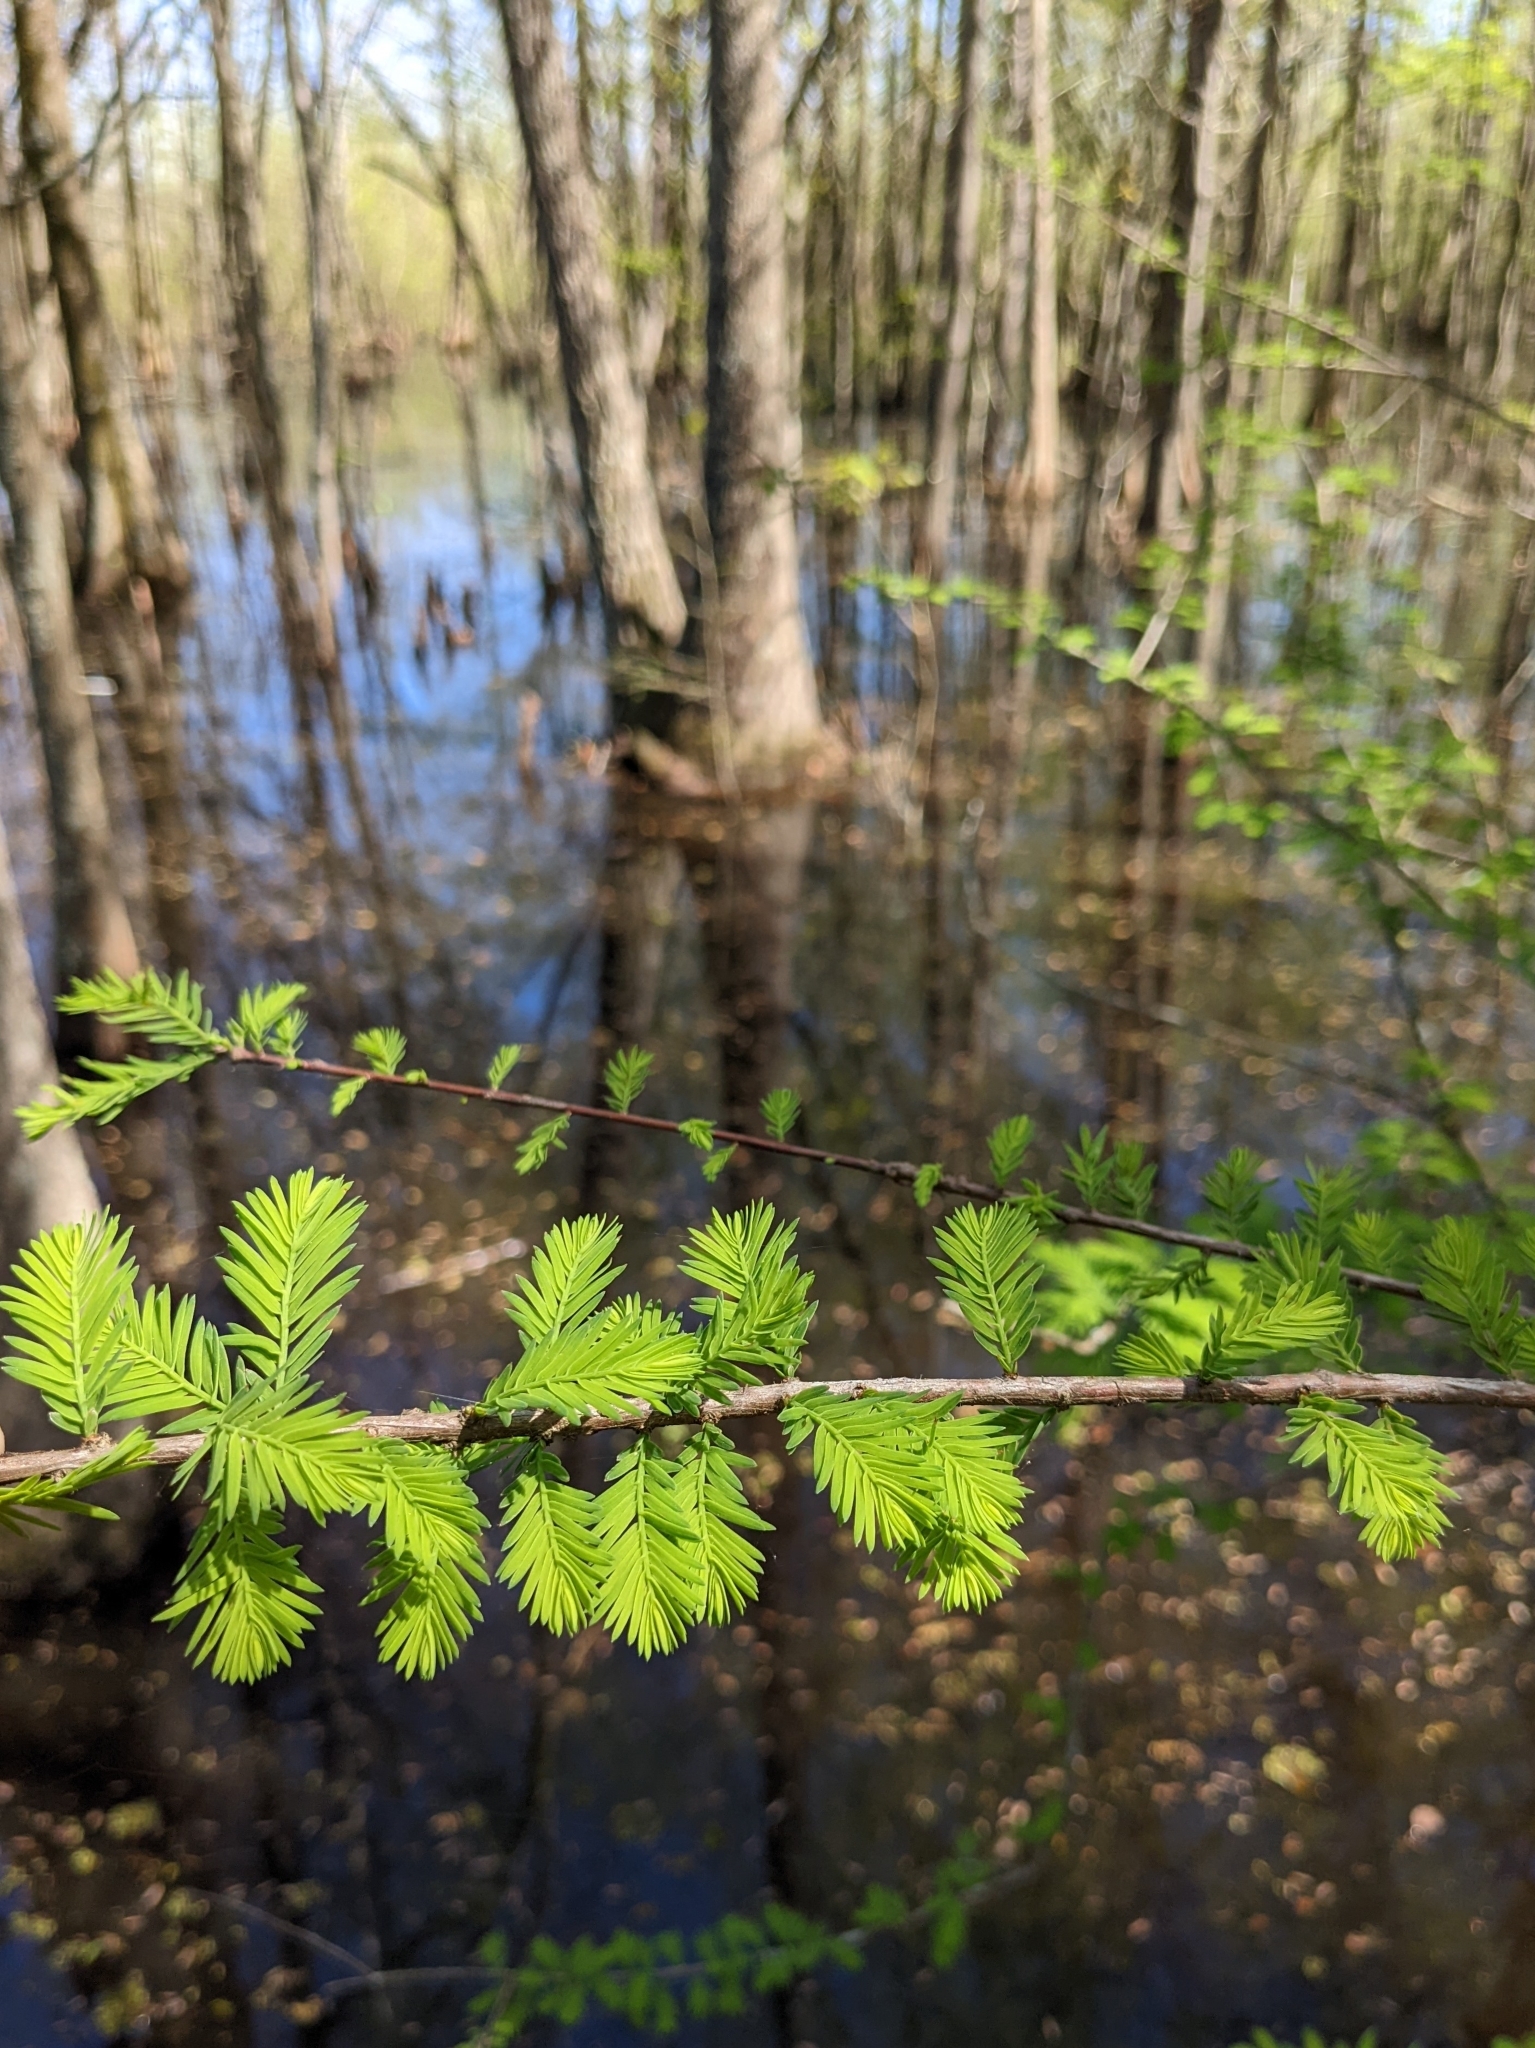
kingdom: Plantae
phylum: Tracheophyta
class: Pinopsida
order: Pinales
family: Cupressaceae
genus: Taxodium
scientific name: Taxodium distichum
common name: Bald cypress
